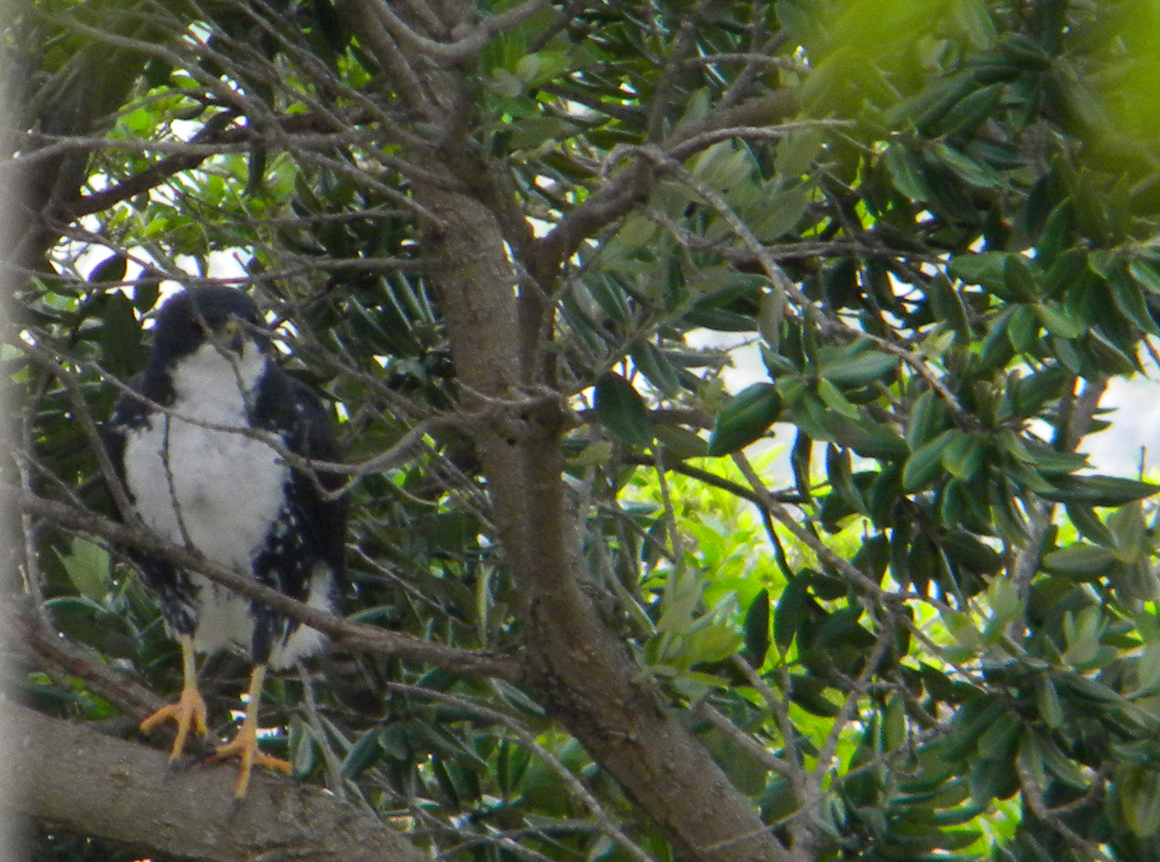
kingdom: Animalia
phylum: Chordata
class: Aves
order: Accipitriformes
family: Accipitridae
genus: Accipiter
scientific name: Accipiter melanoleucus
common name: Black sparrowhawk
